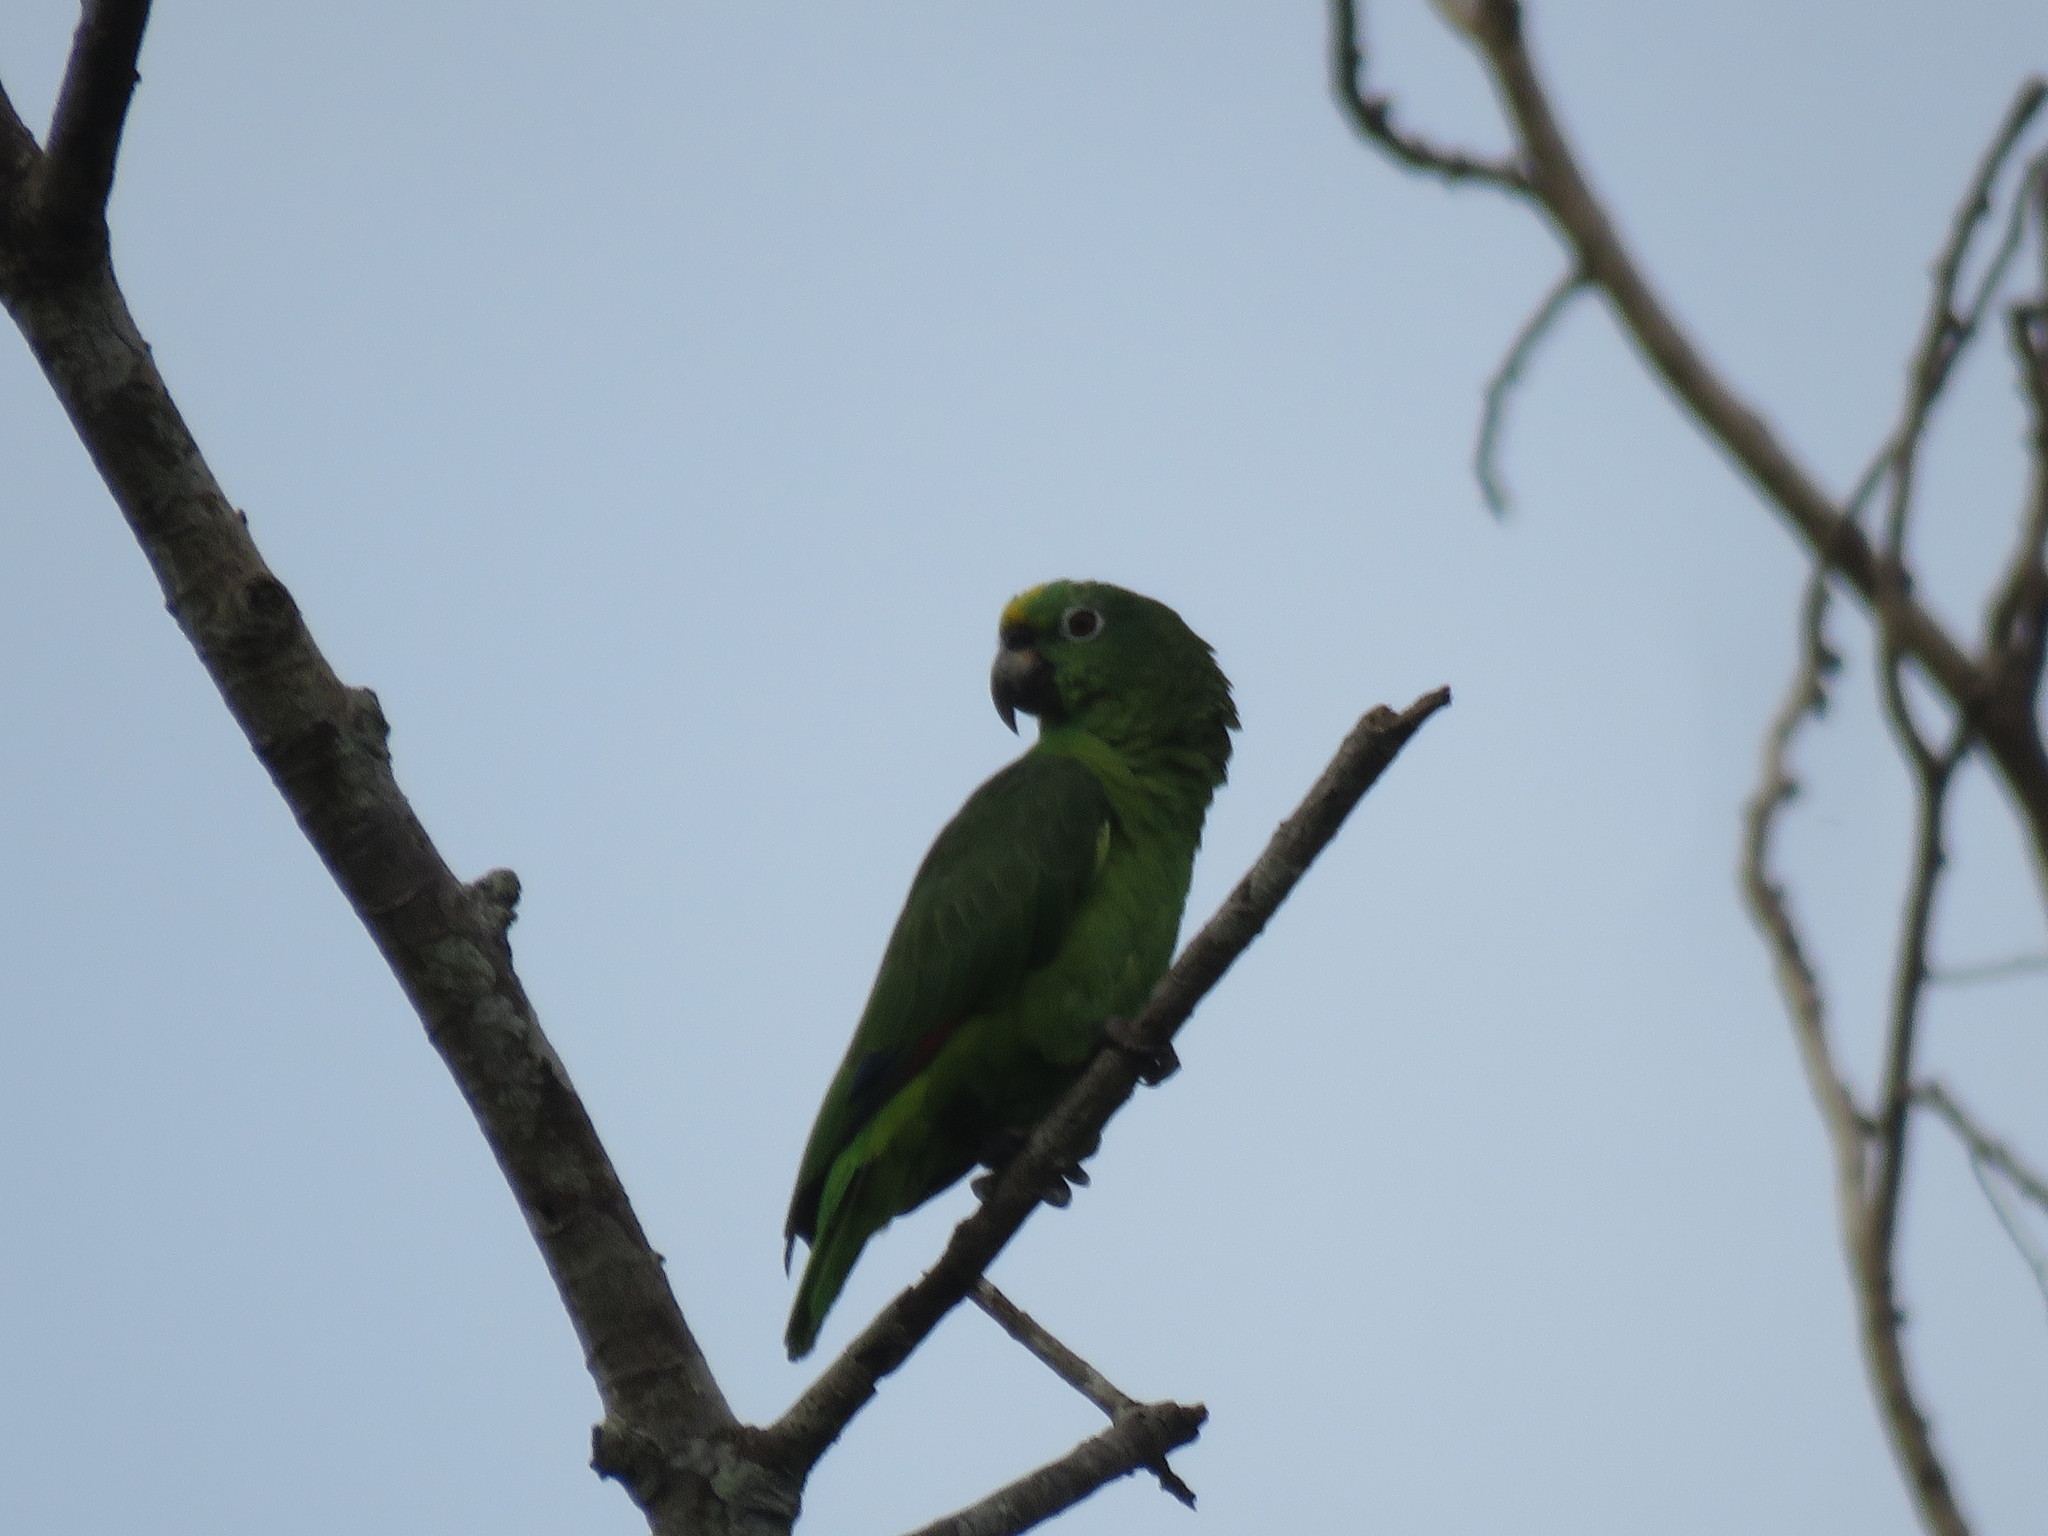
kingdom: Animalia
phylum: Chordata
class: Aves
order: Psittaciformes
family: Psittacidae
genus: Amazona
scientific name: Amazona ochrocephala
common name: Yellow-crowned amazon
